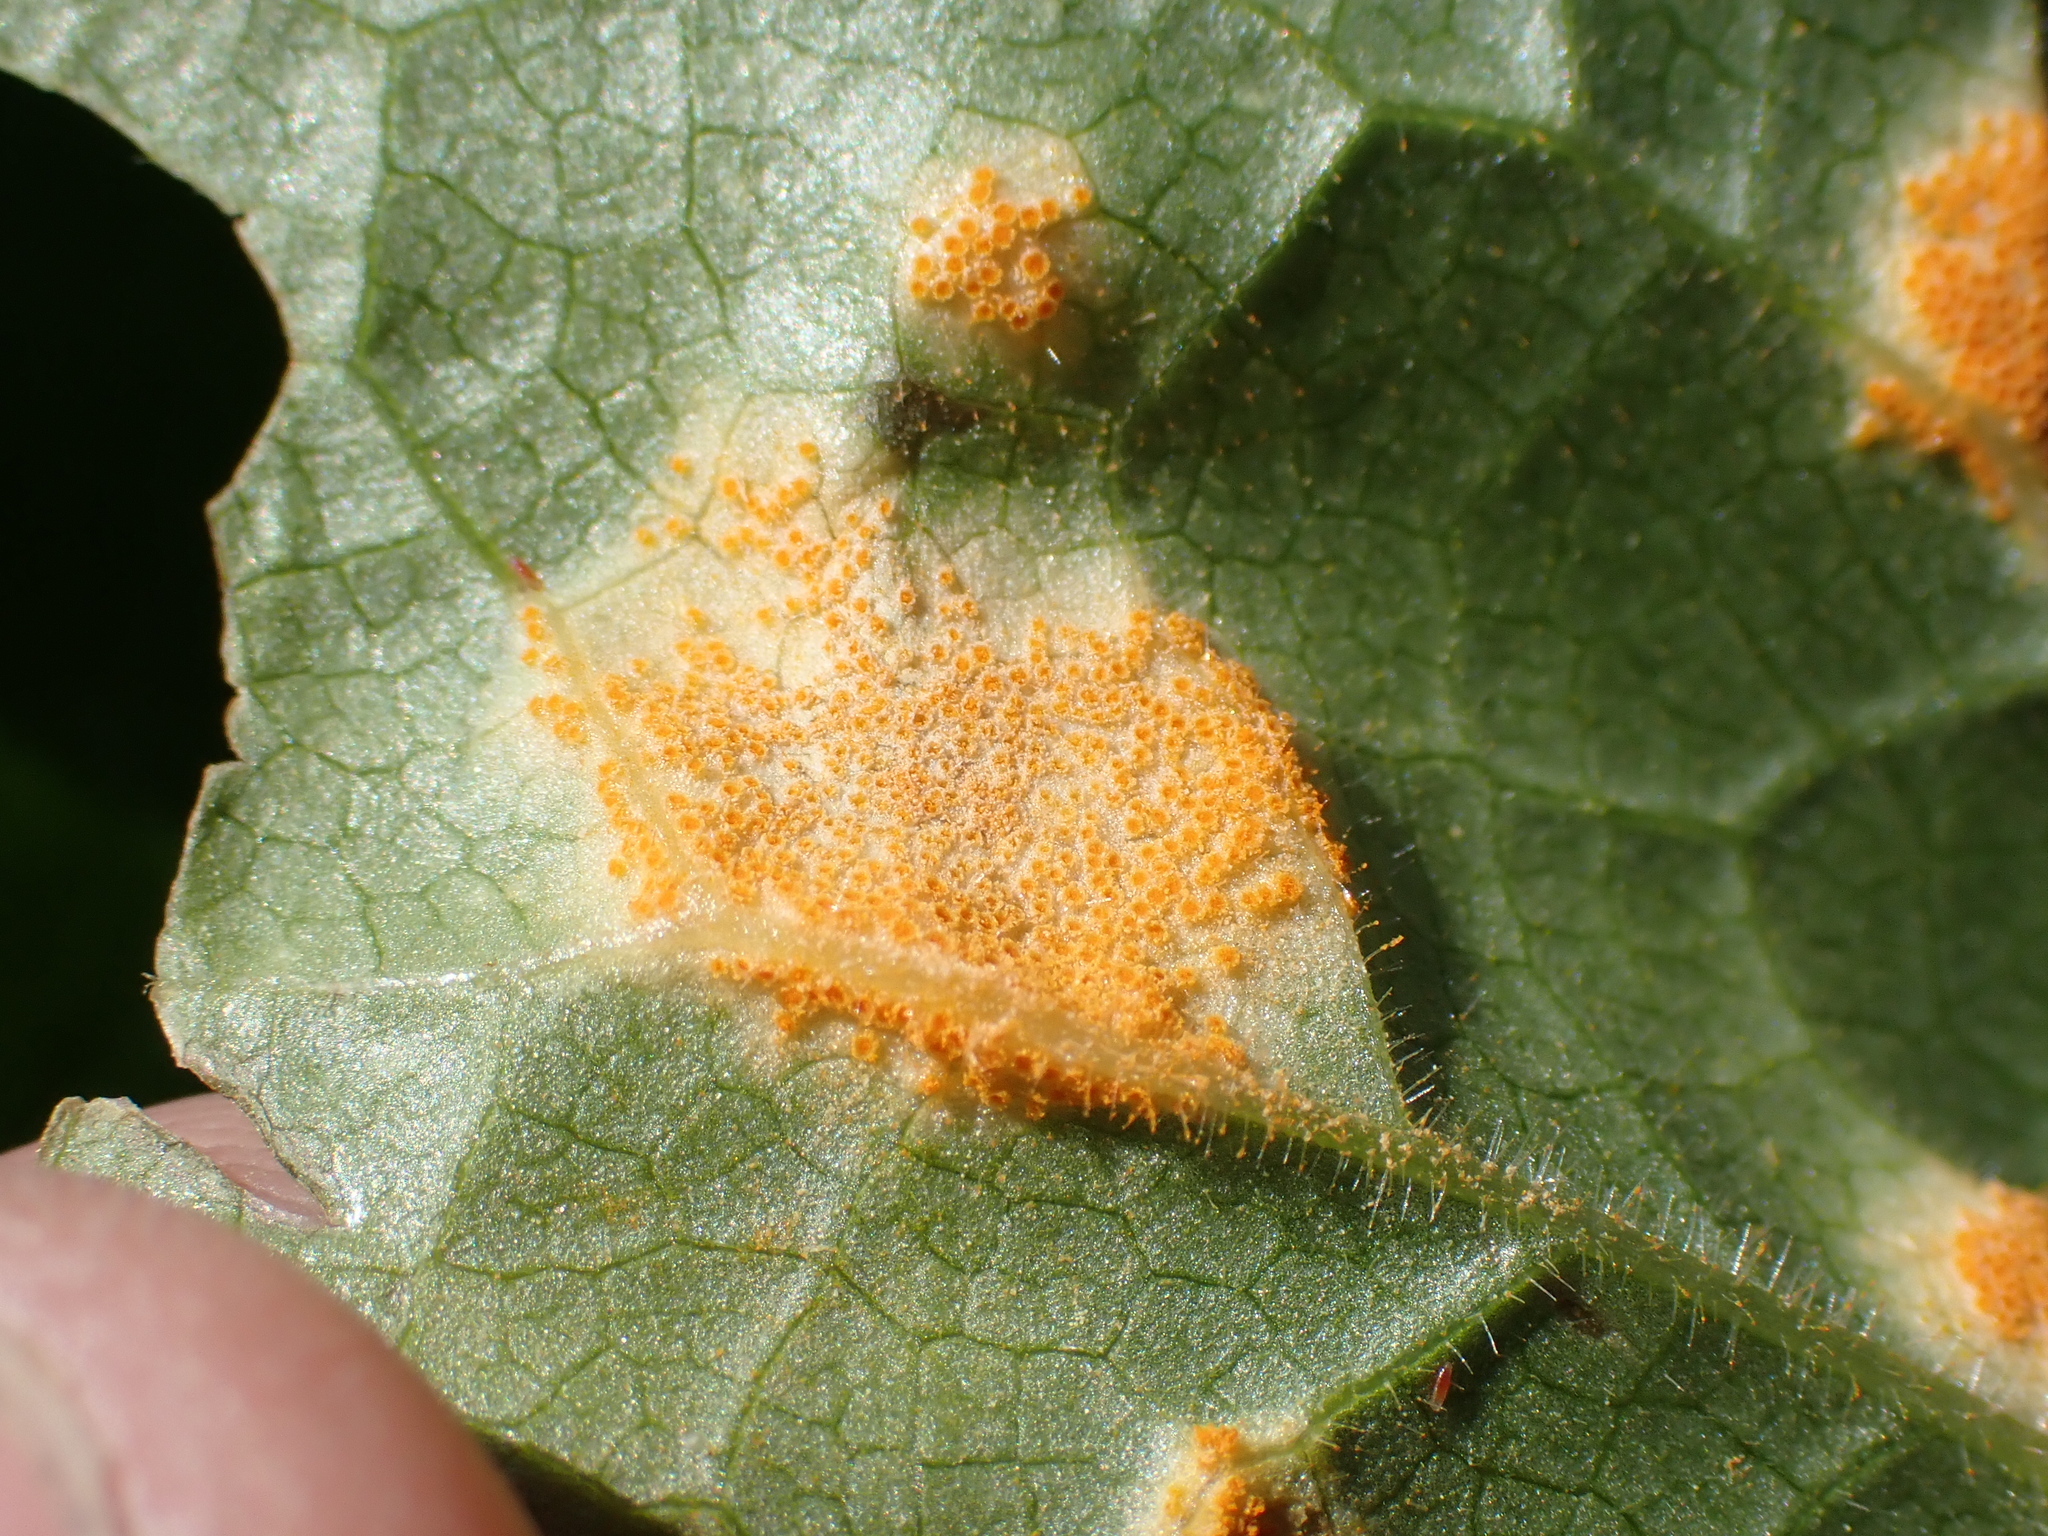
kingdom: Fungi
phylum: Basidiomycota
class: Pucciniomycetes
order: Pucciniales
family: Pucciniaceae
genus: Puccinia
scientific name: Puccinia podophylli
